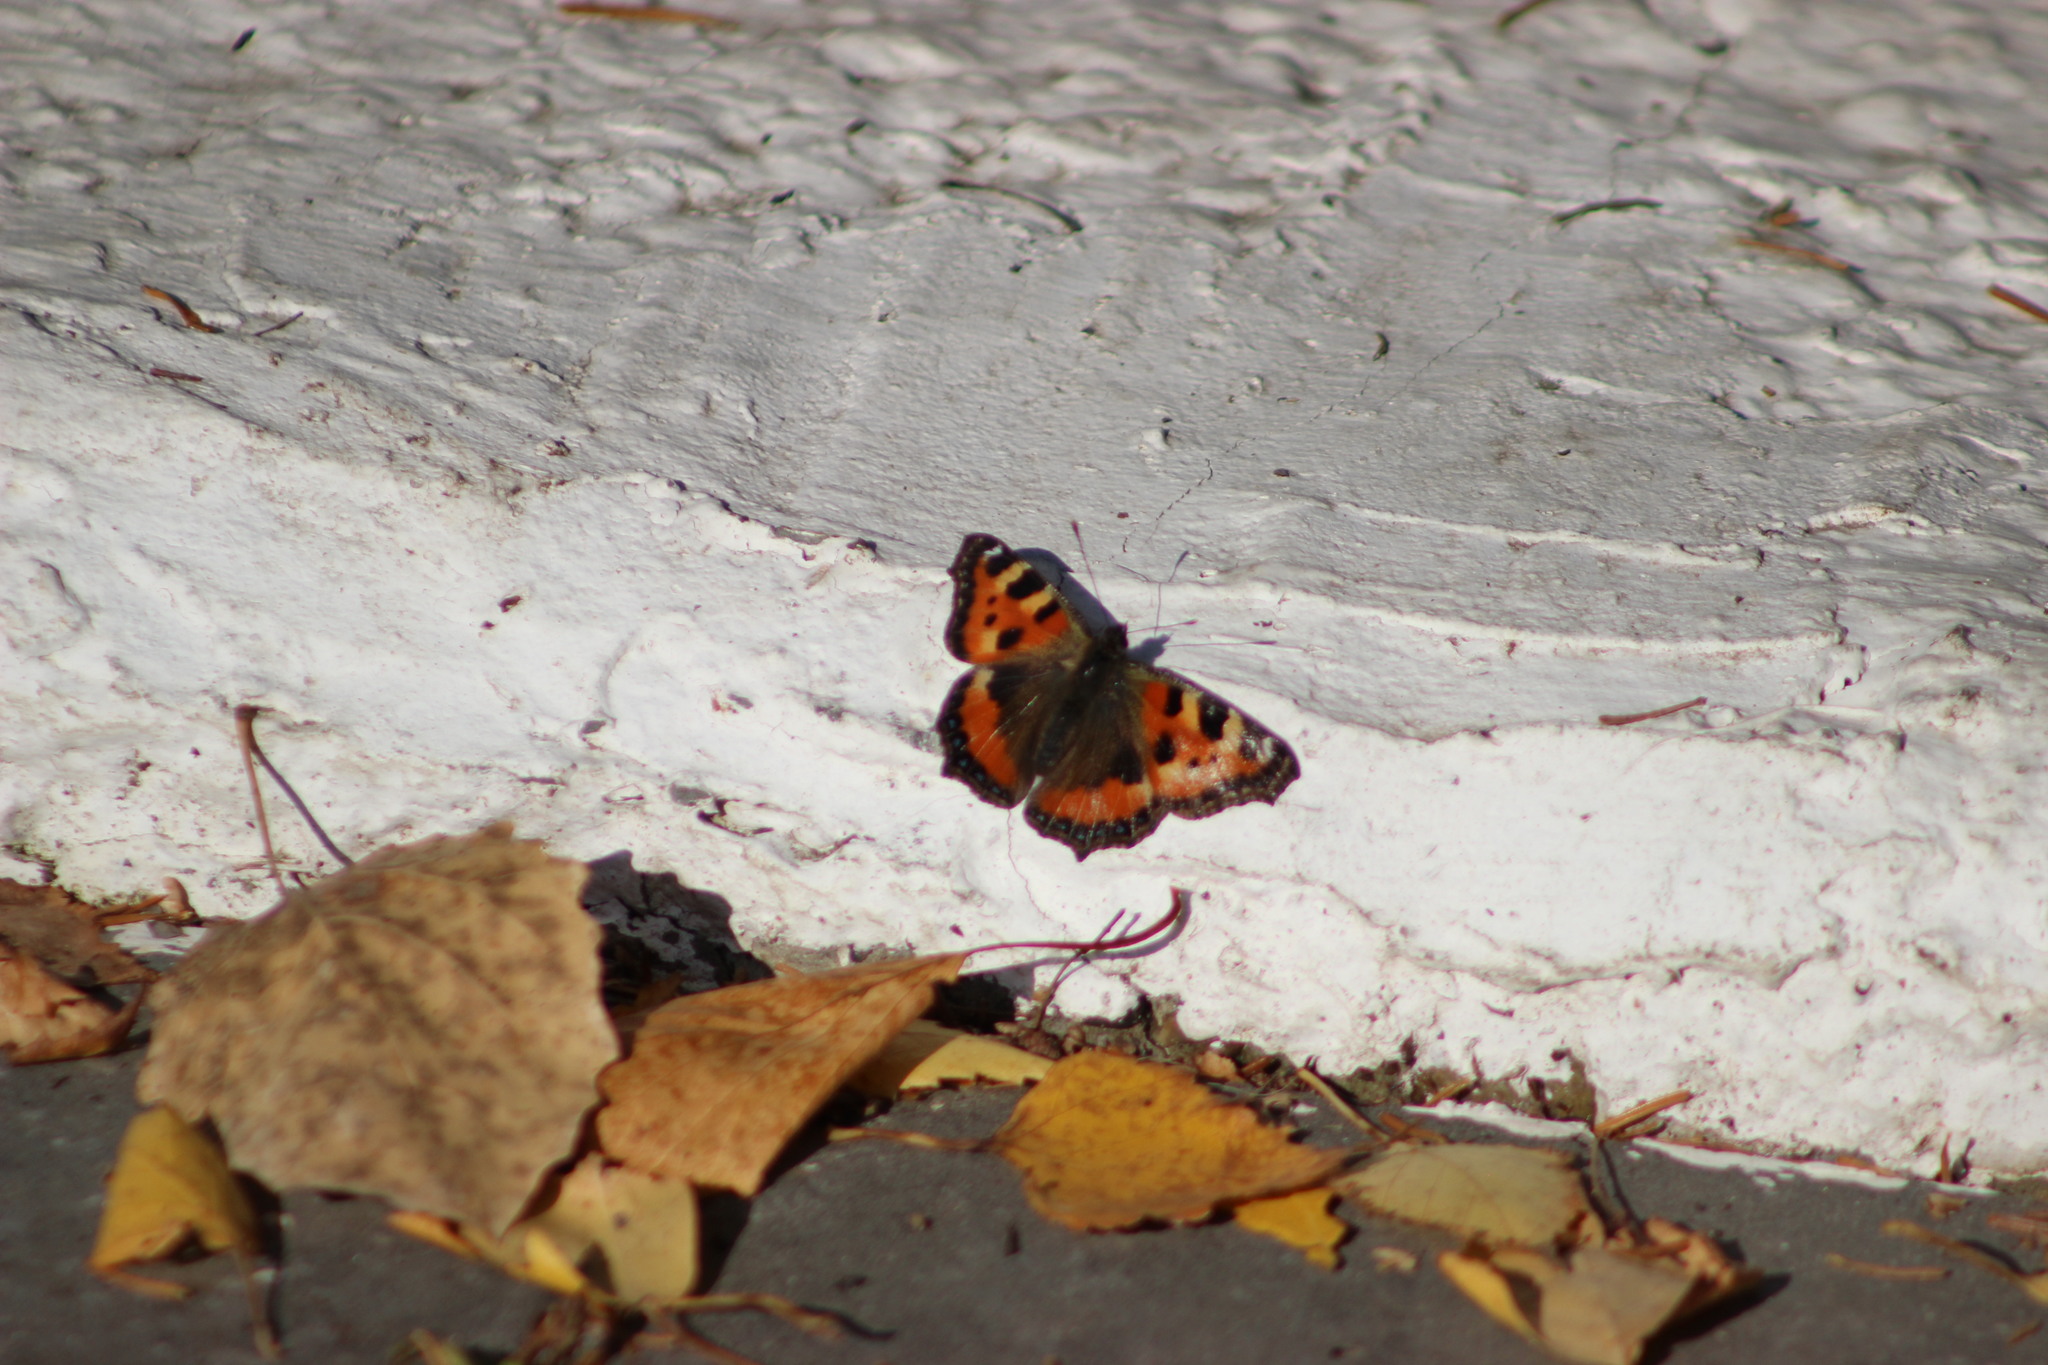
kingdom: Animalia
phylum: Arthropoda
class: Insecta
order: Lepidoptera
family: Nymphalidae
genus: Aglais
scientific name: Aglais urticae
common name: Small tortoiseshell
